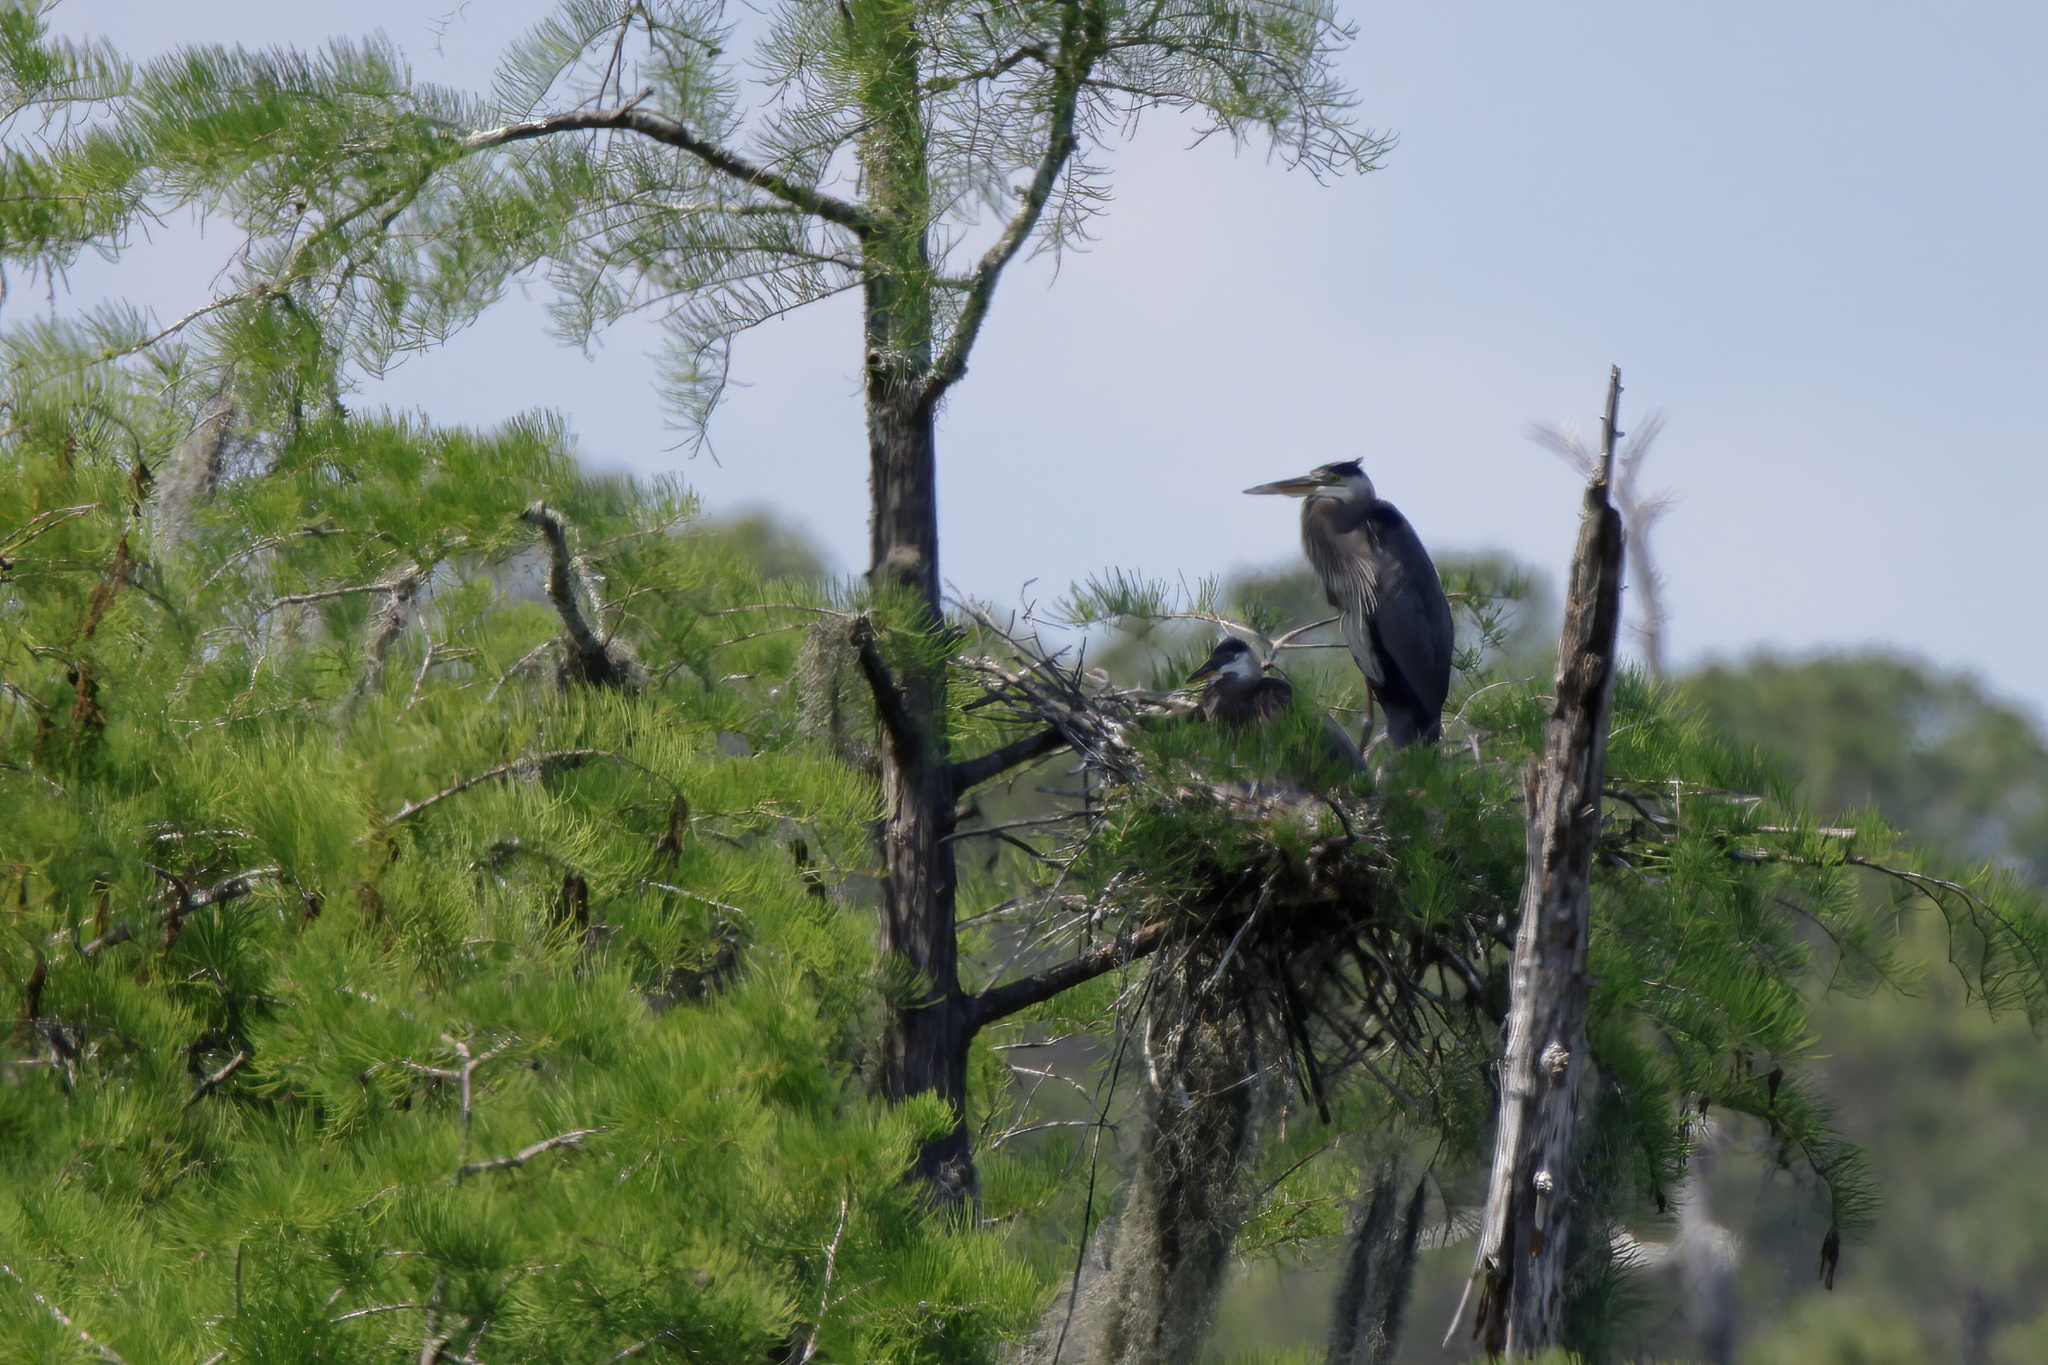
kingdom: Animalia
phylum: Chordata
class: Aves
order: Pelecaniformes
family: Ardeidae
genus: Ardea
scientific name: Ardea herodias
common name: Great blue heron
